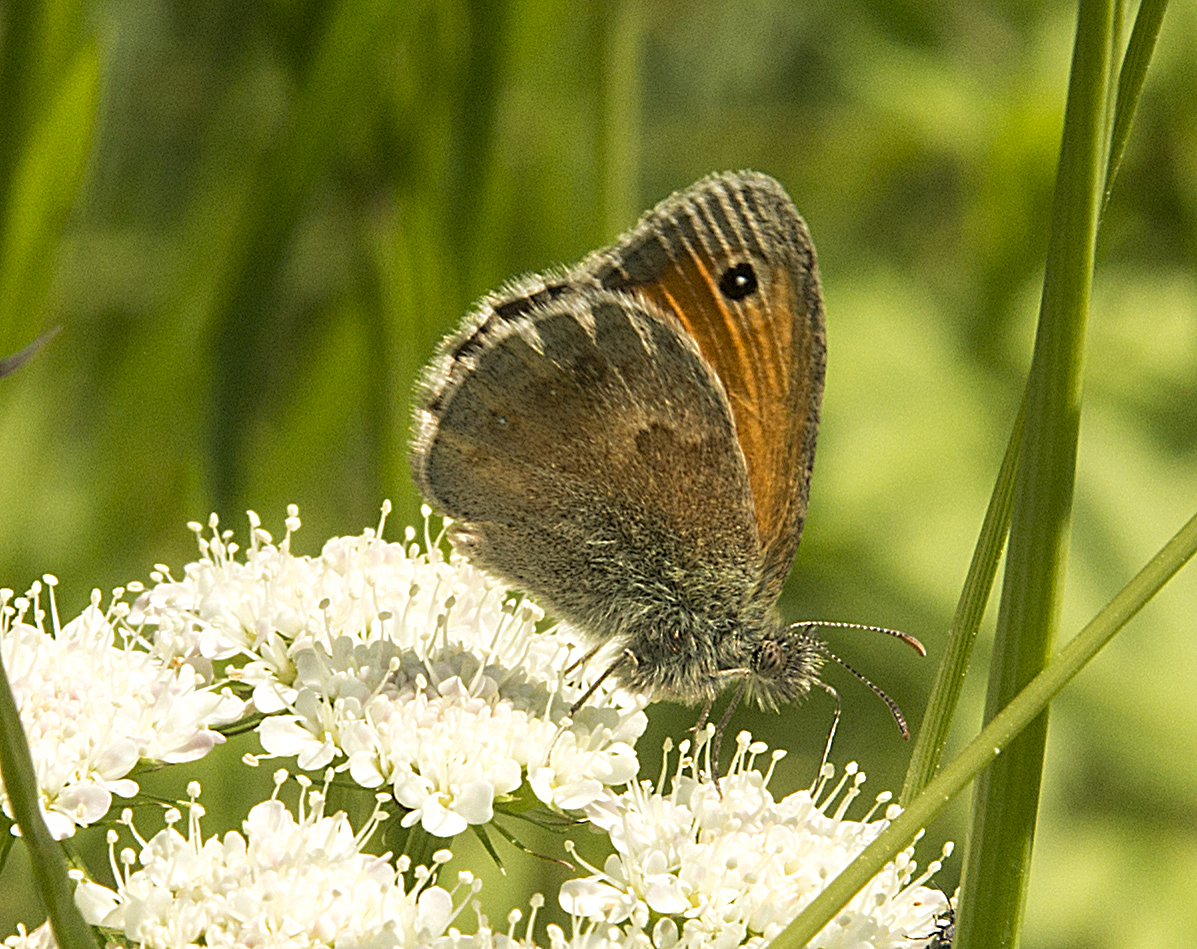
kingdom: Animalia
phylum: Arthropoda
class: Insecta
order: Lepidoptera
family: Nymphalidae
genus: Coenonympha
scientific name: Coenonympha pamphilus
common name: Small heath
